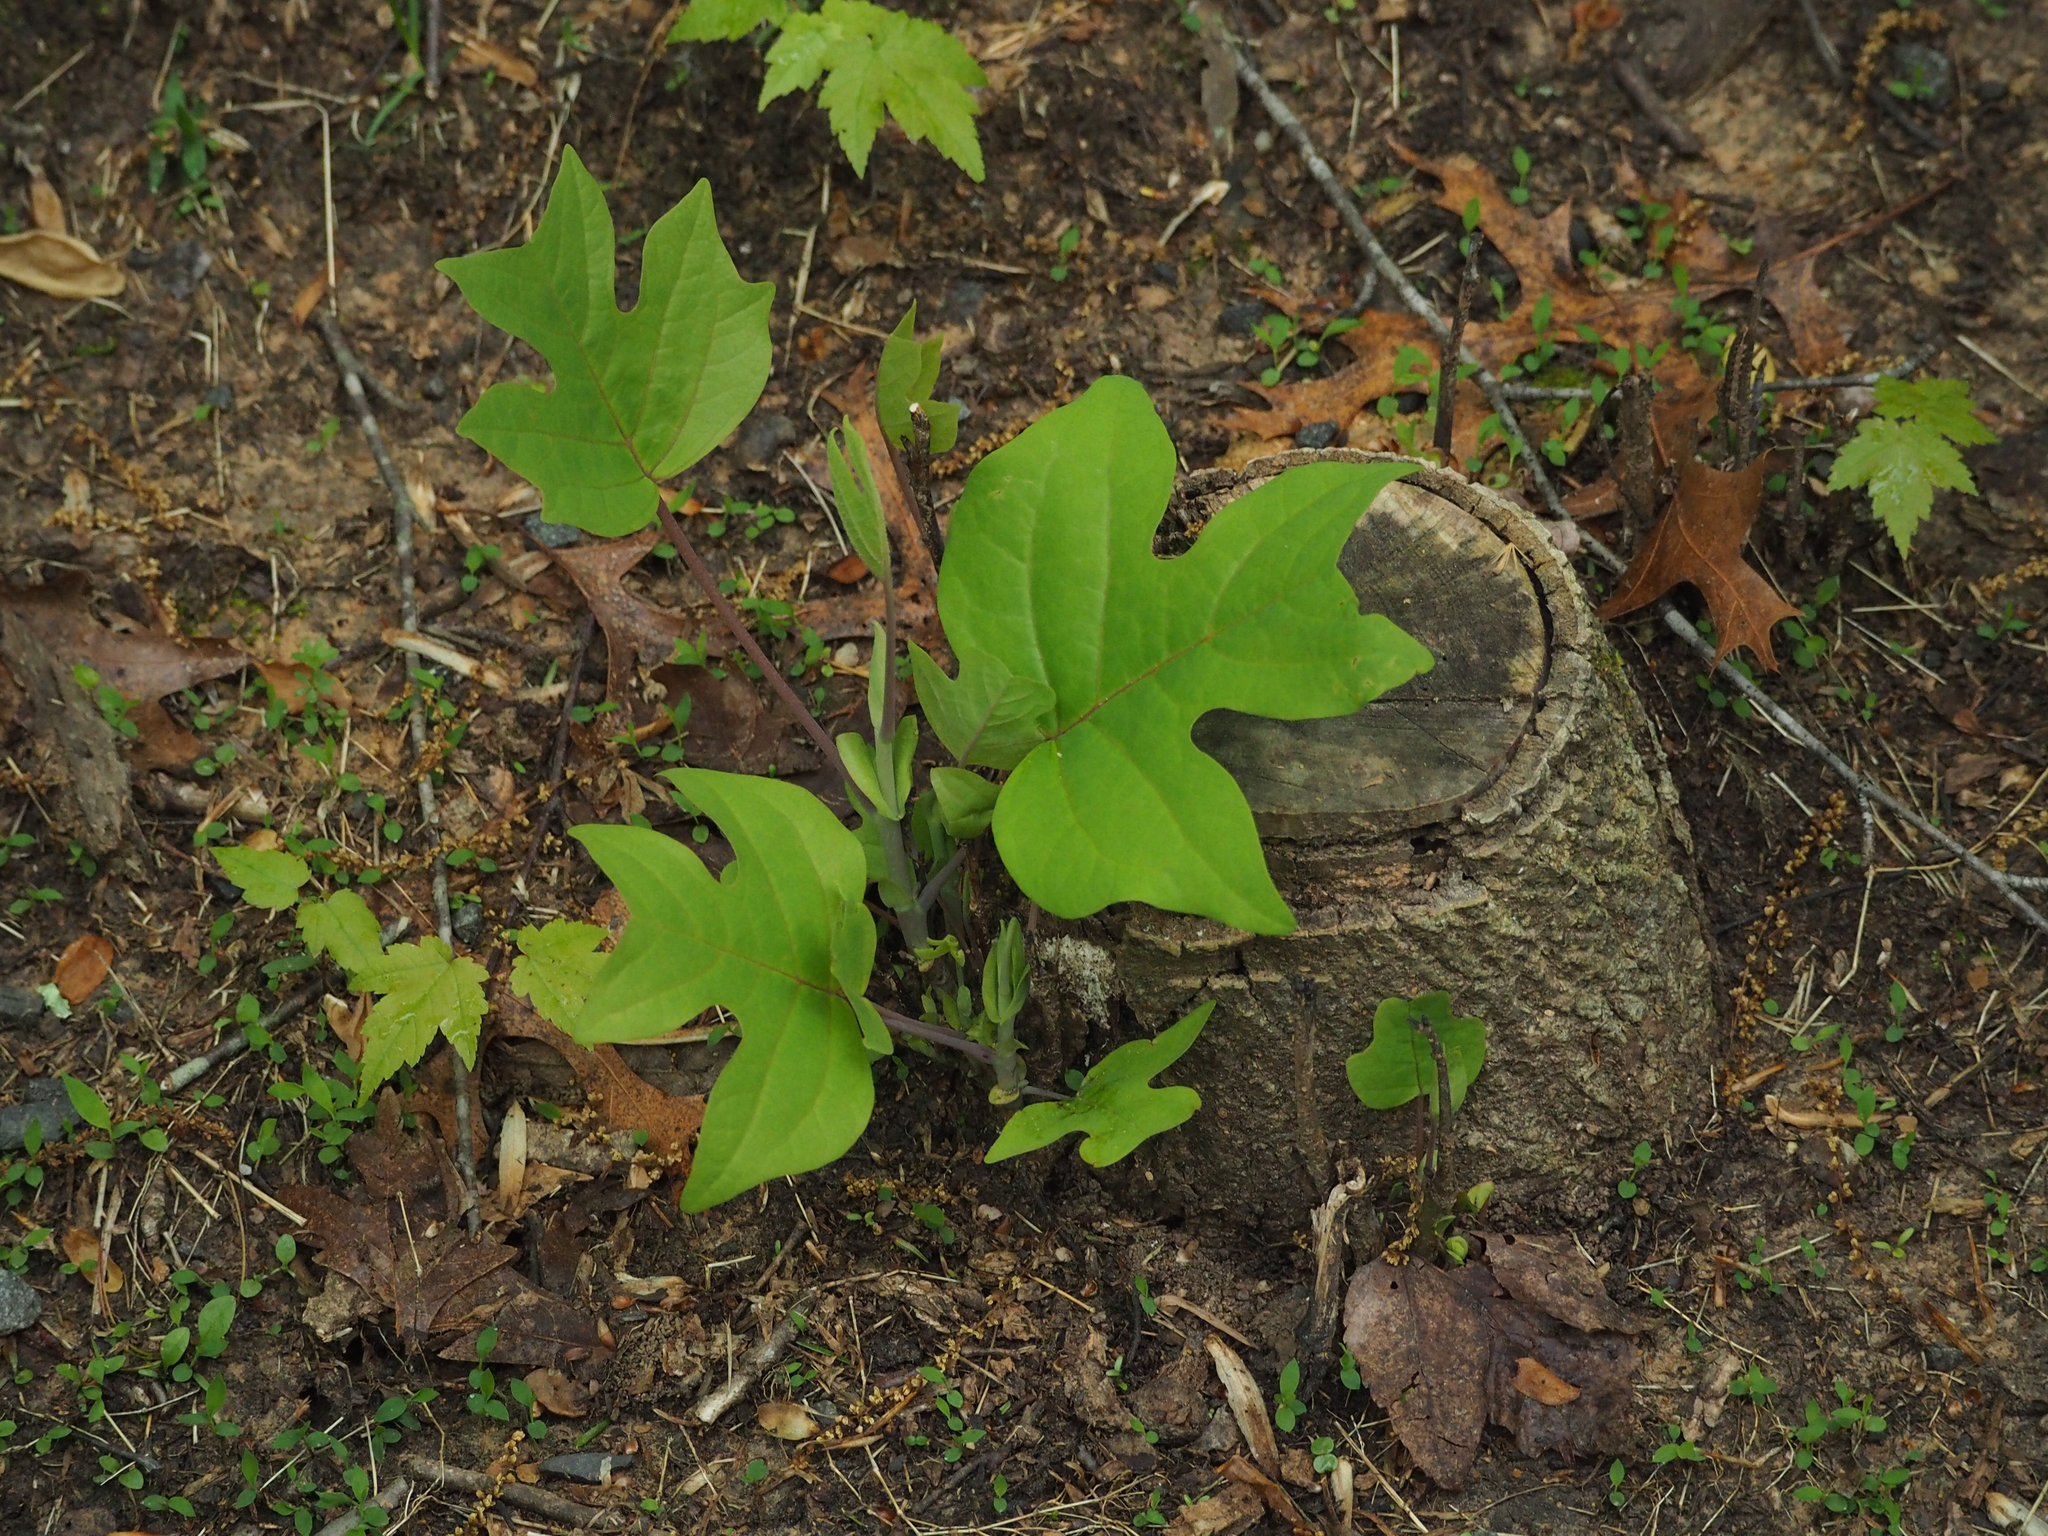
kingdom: Plantae
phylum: Tracheophyta
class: Magnoliopsida
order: Magnoliales
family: Magnoliaceae
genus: Liriodendron
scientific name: Liriodendron tulipifera
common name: Tulip tree
